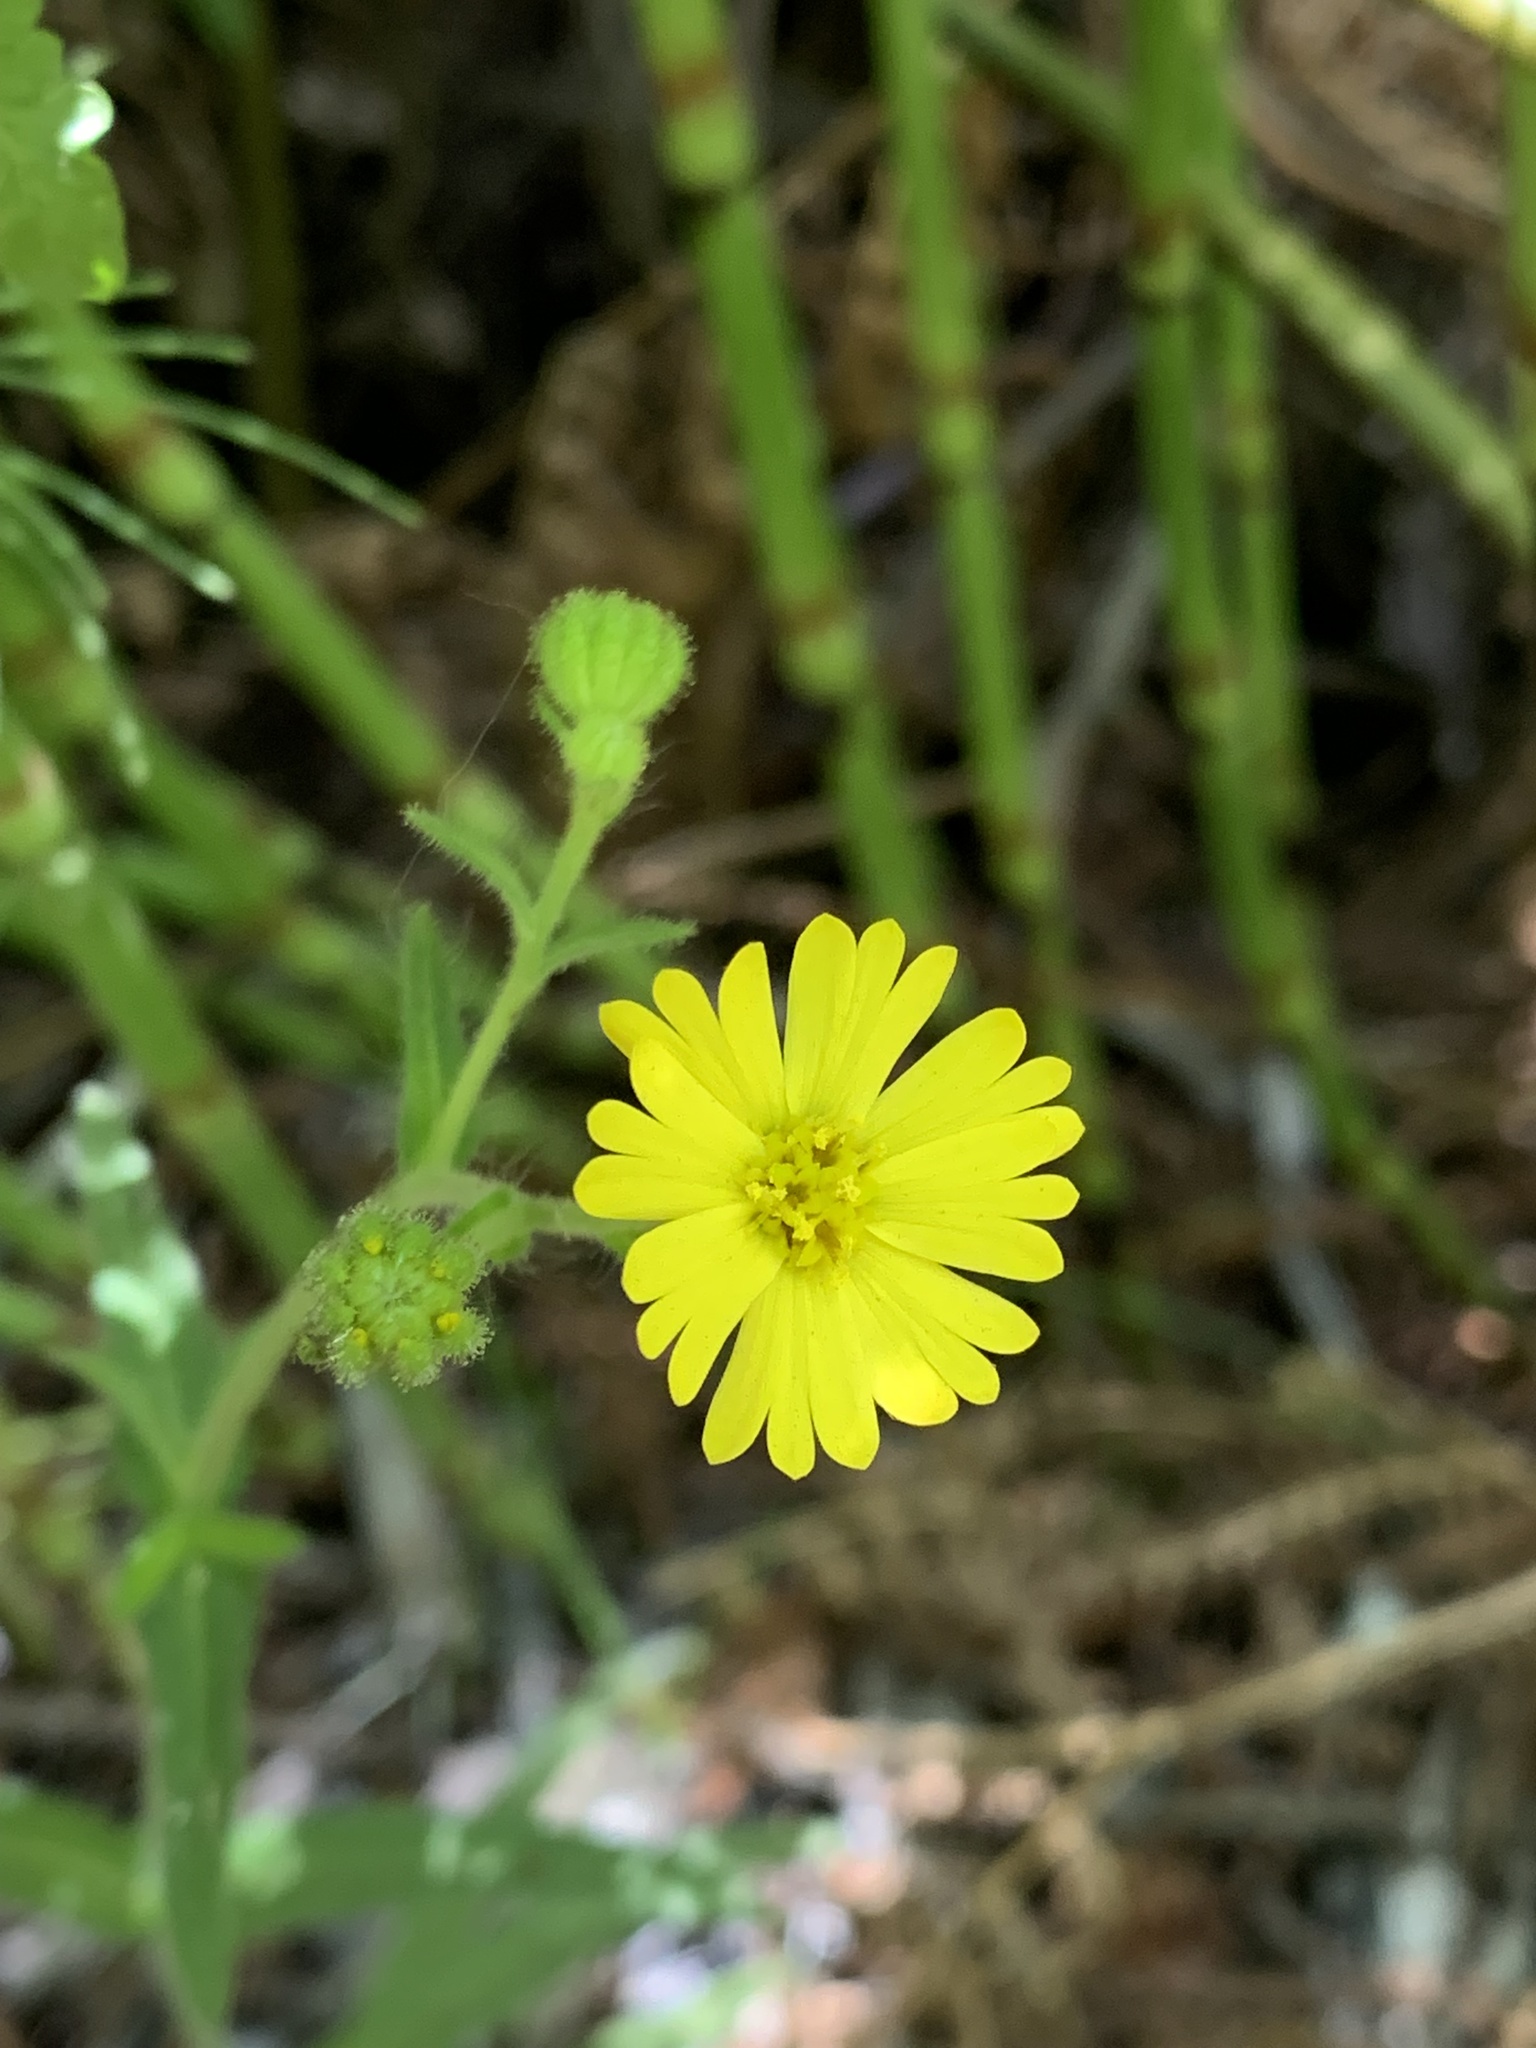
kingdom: Plantae
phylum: Tracheophyta
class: Magnoliopsida
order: Asterales
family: Asteraceae
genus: Anisocarpus
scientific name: Anisocarpus madioides
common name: Woodland madia
